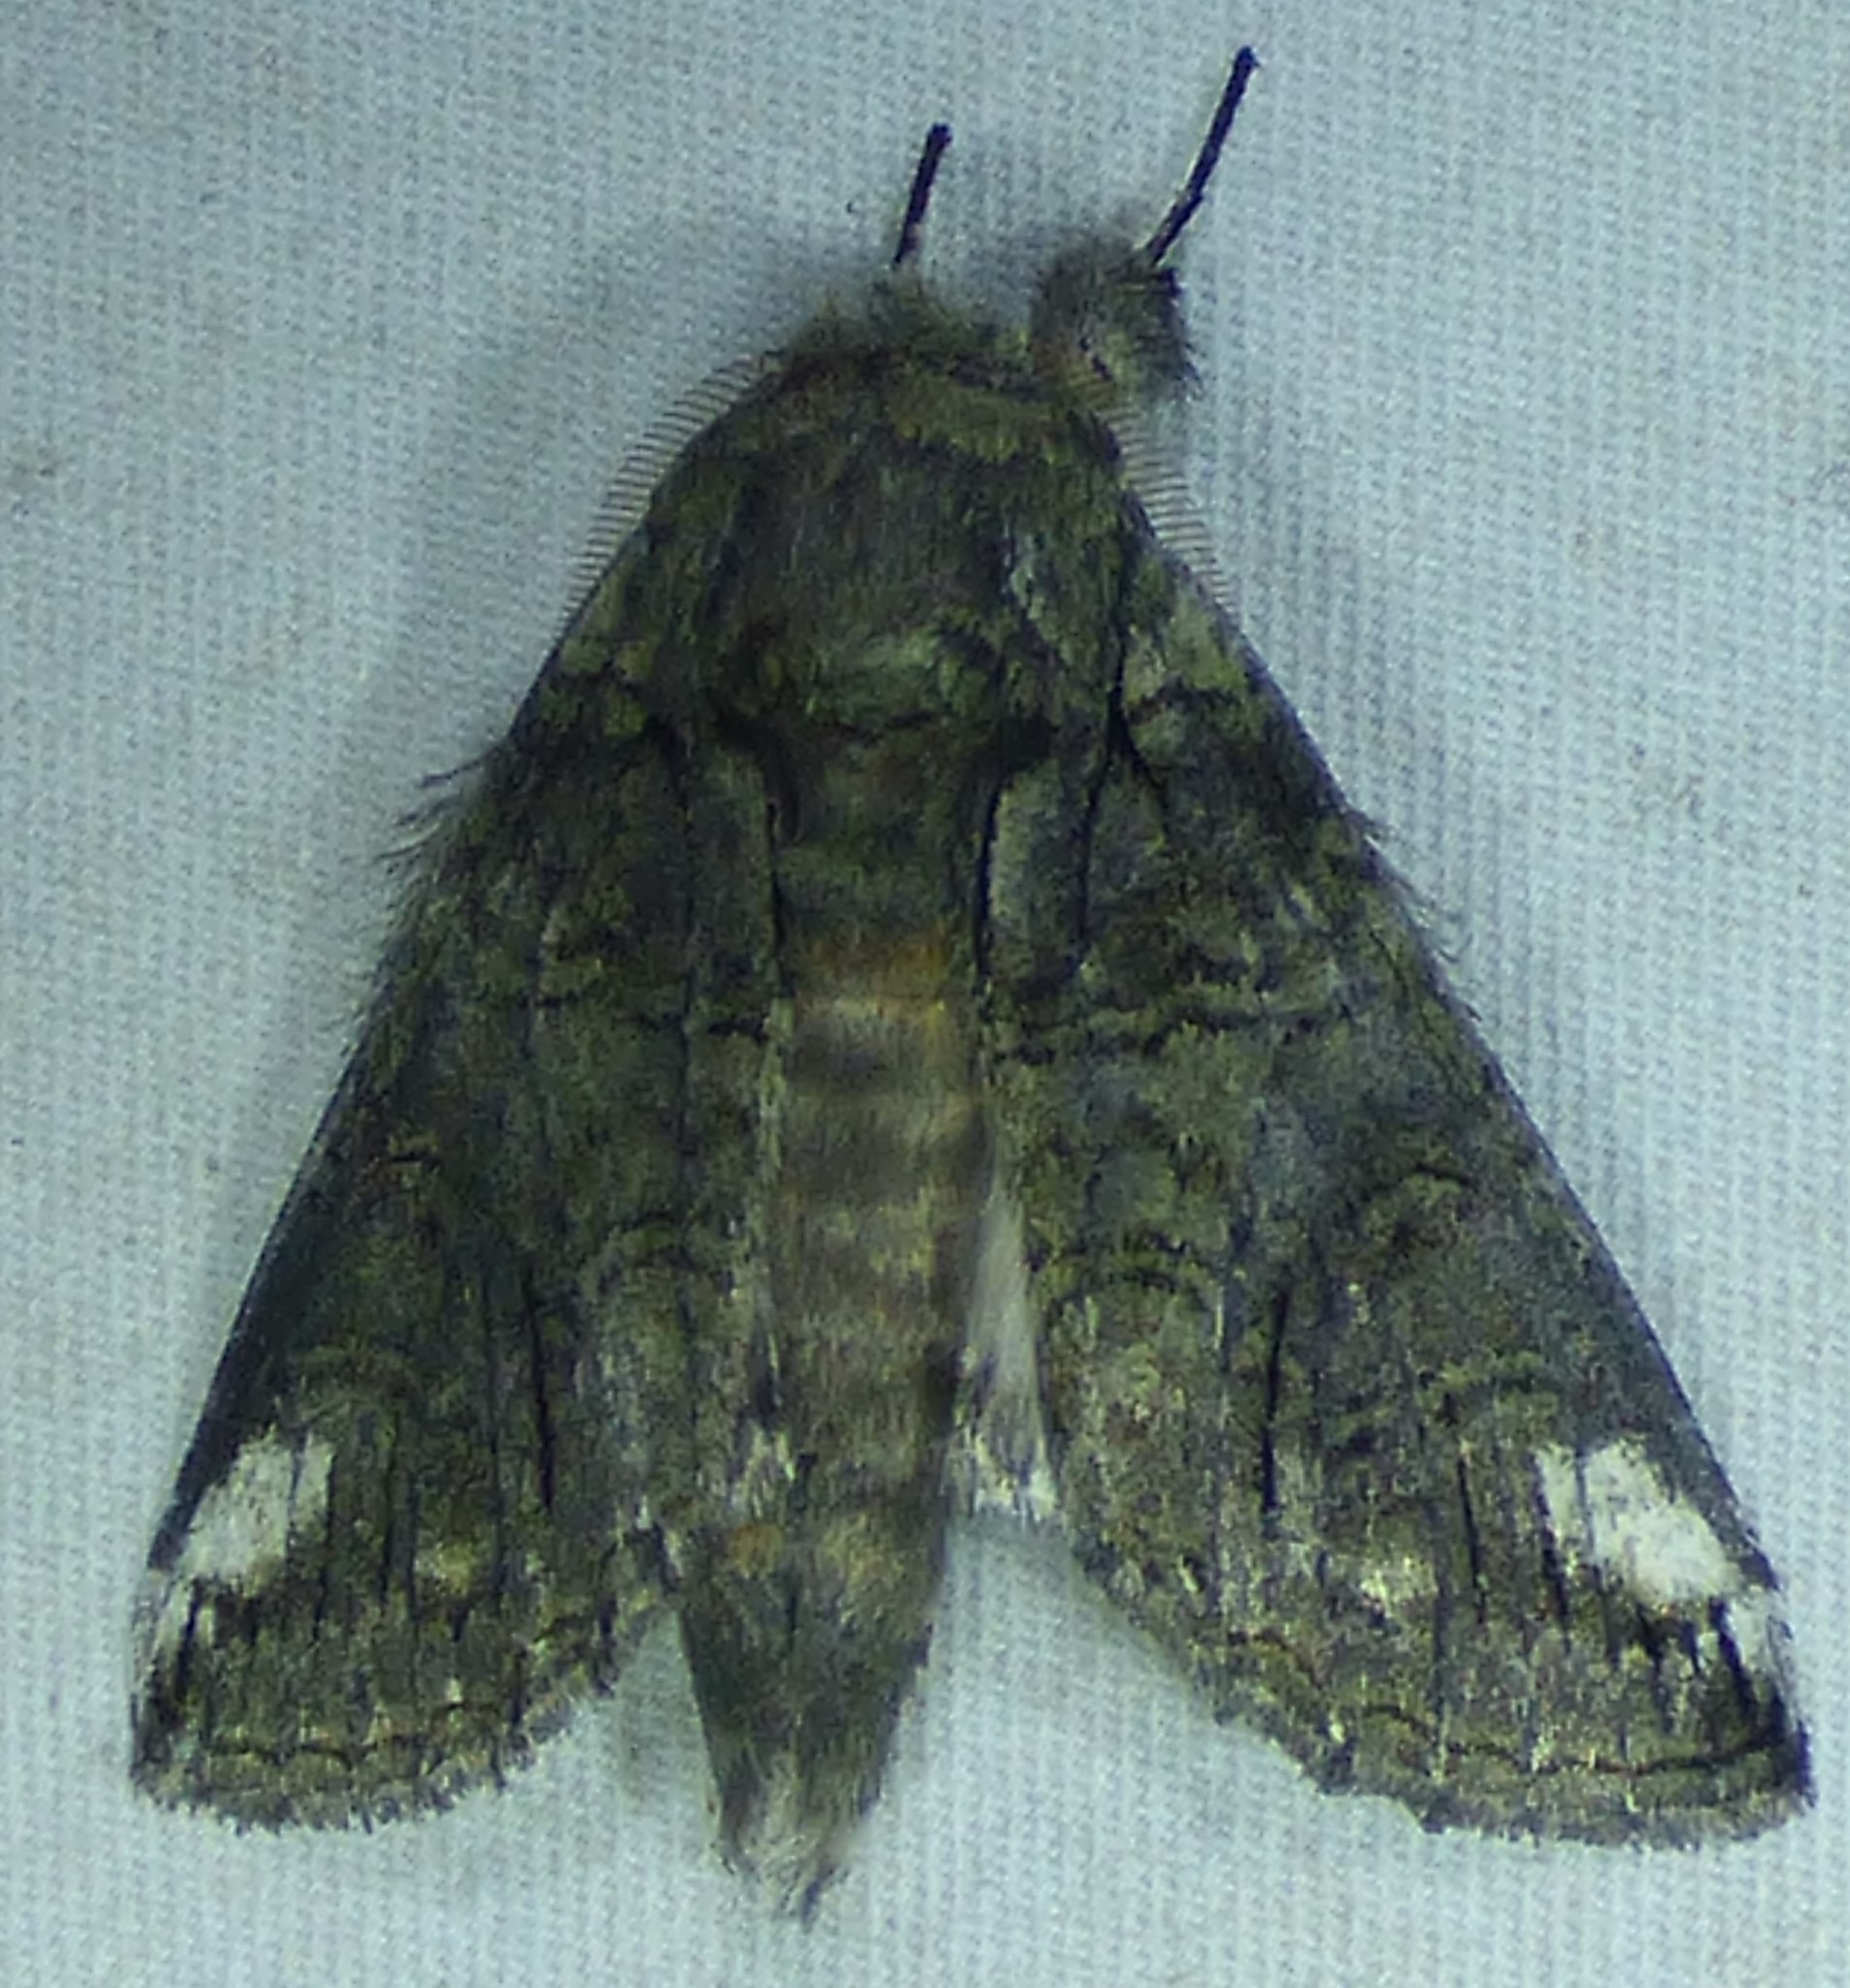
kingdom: Animalia
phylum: Arthropoda
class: Insecta
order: Lepidoptera
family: Notodontidae
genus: Heterocampa
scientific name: Heterocampa obliqua
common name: Oblique heterocampa
